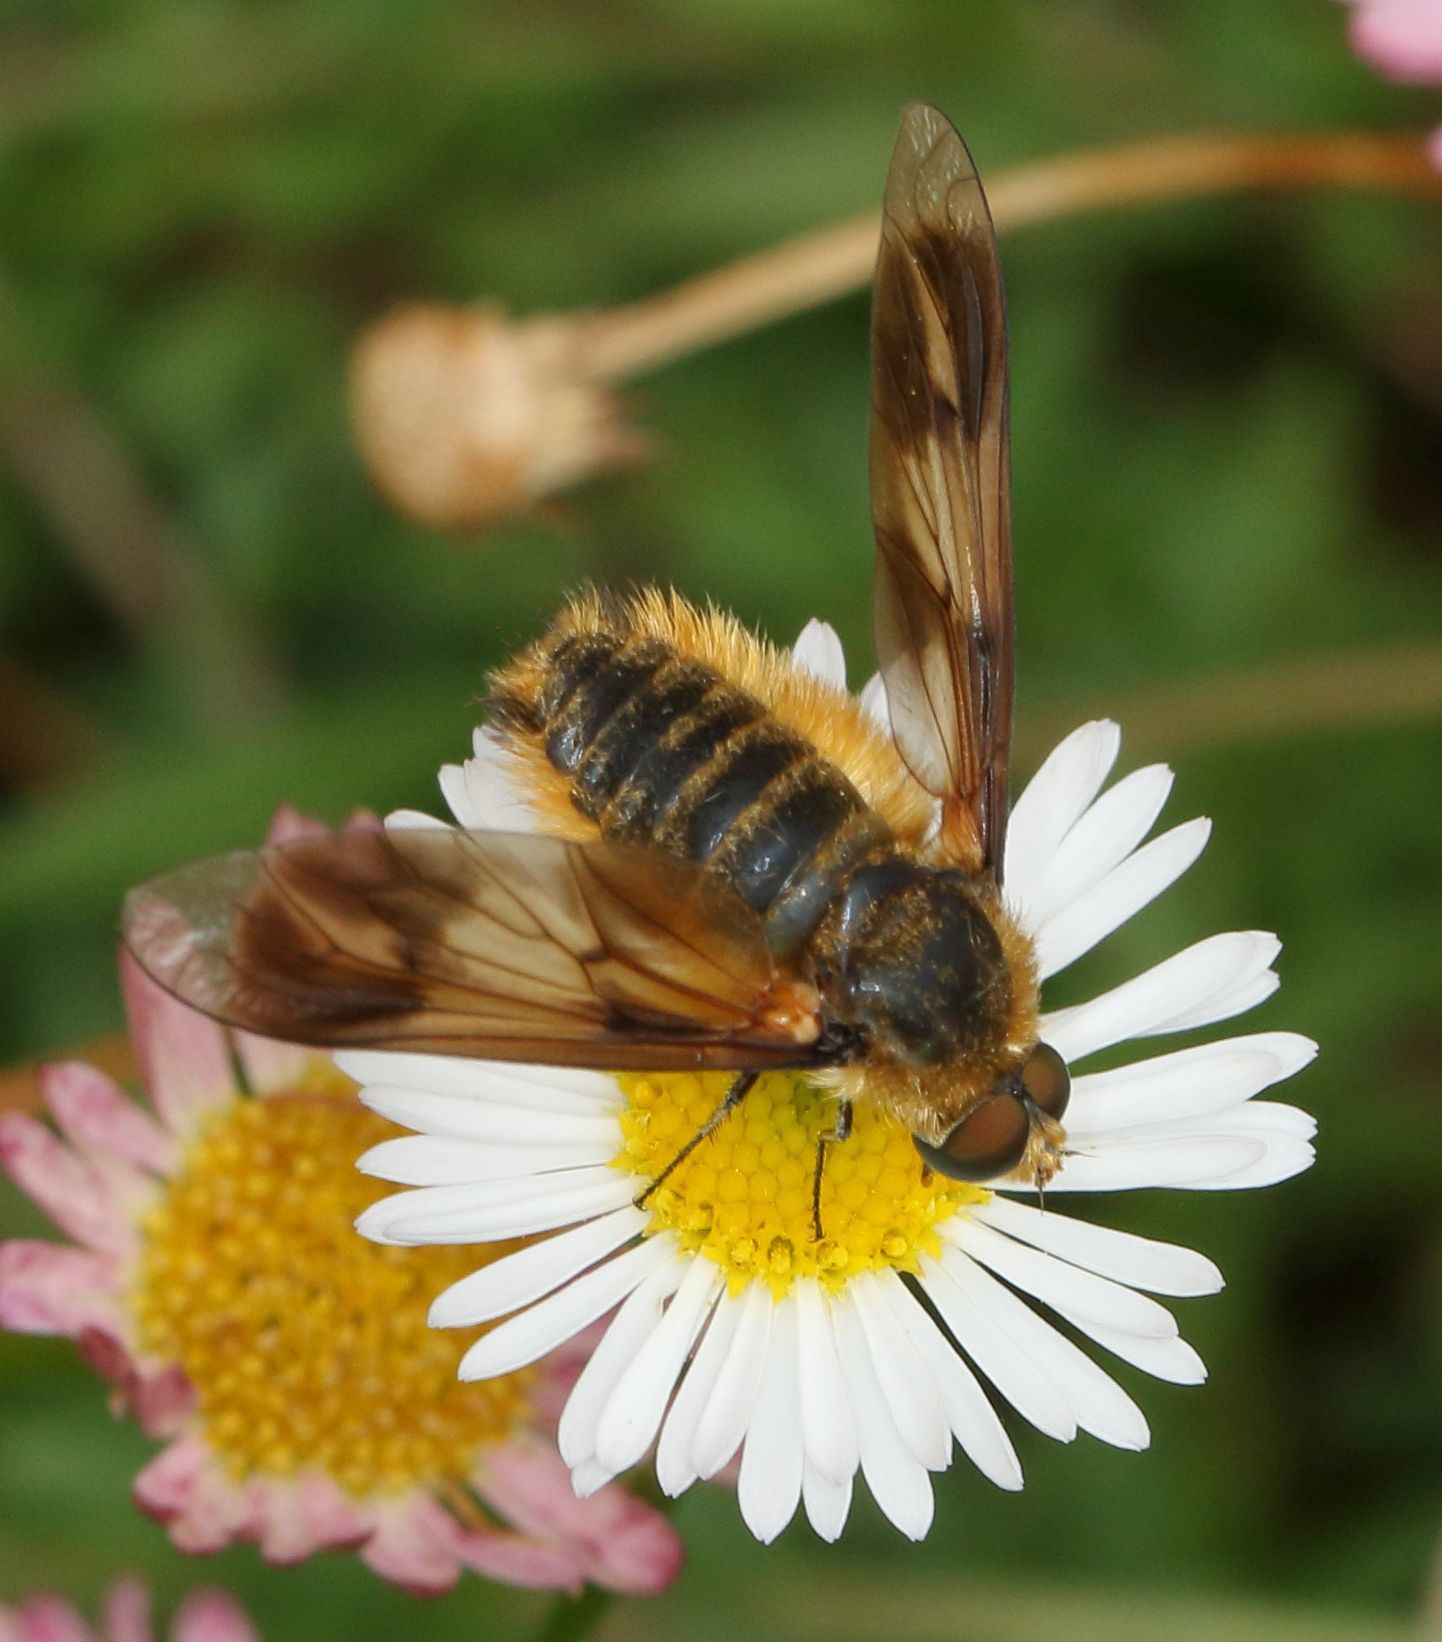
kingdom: Animalia
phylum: Arthropoda
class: Insecta
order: Diptera
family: Bombyliidae
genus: Notolomatia
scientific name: Notolomatia pictipennis
